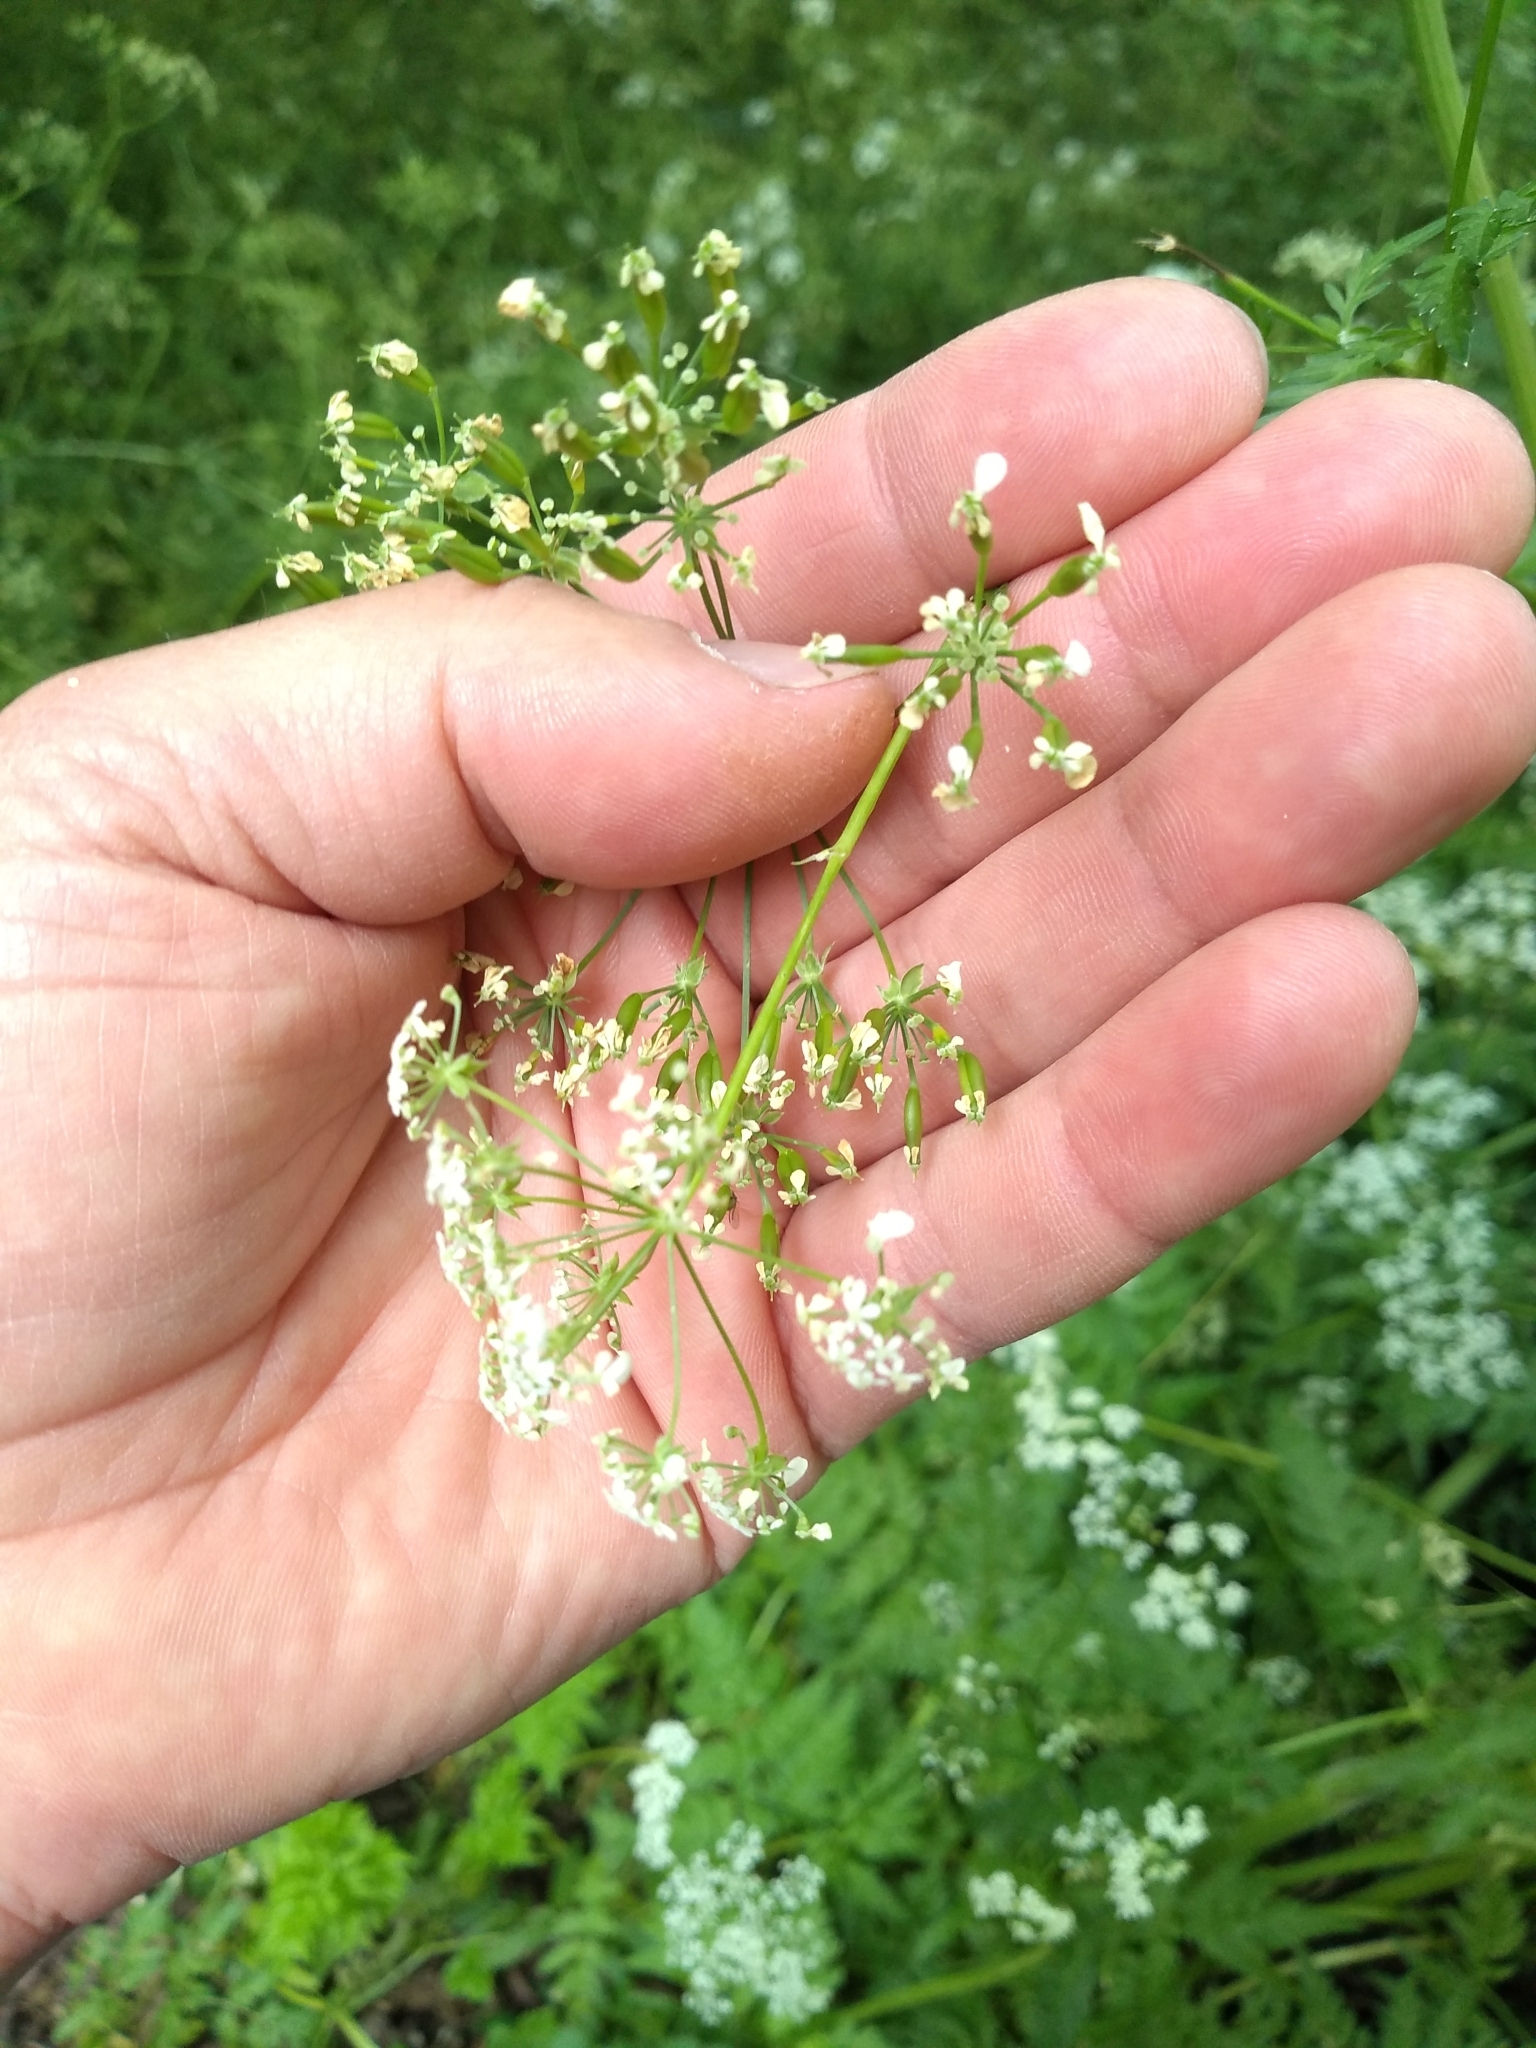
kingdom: Plantae
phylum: Tracheophyta
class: Magnoliopsida
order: Apiales
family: Apiaceae
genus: Anthriscus
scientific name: Anthriscus sylvestris
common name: Cow parsley
